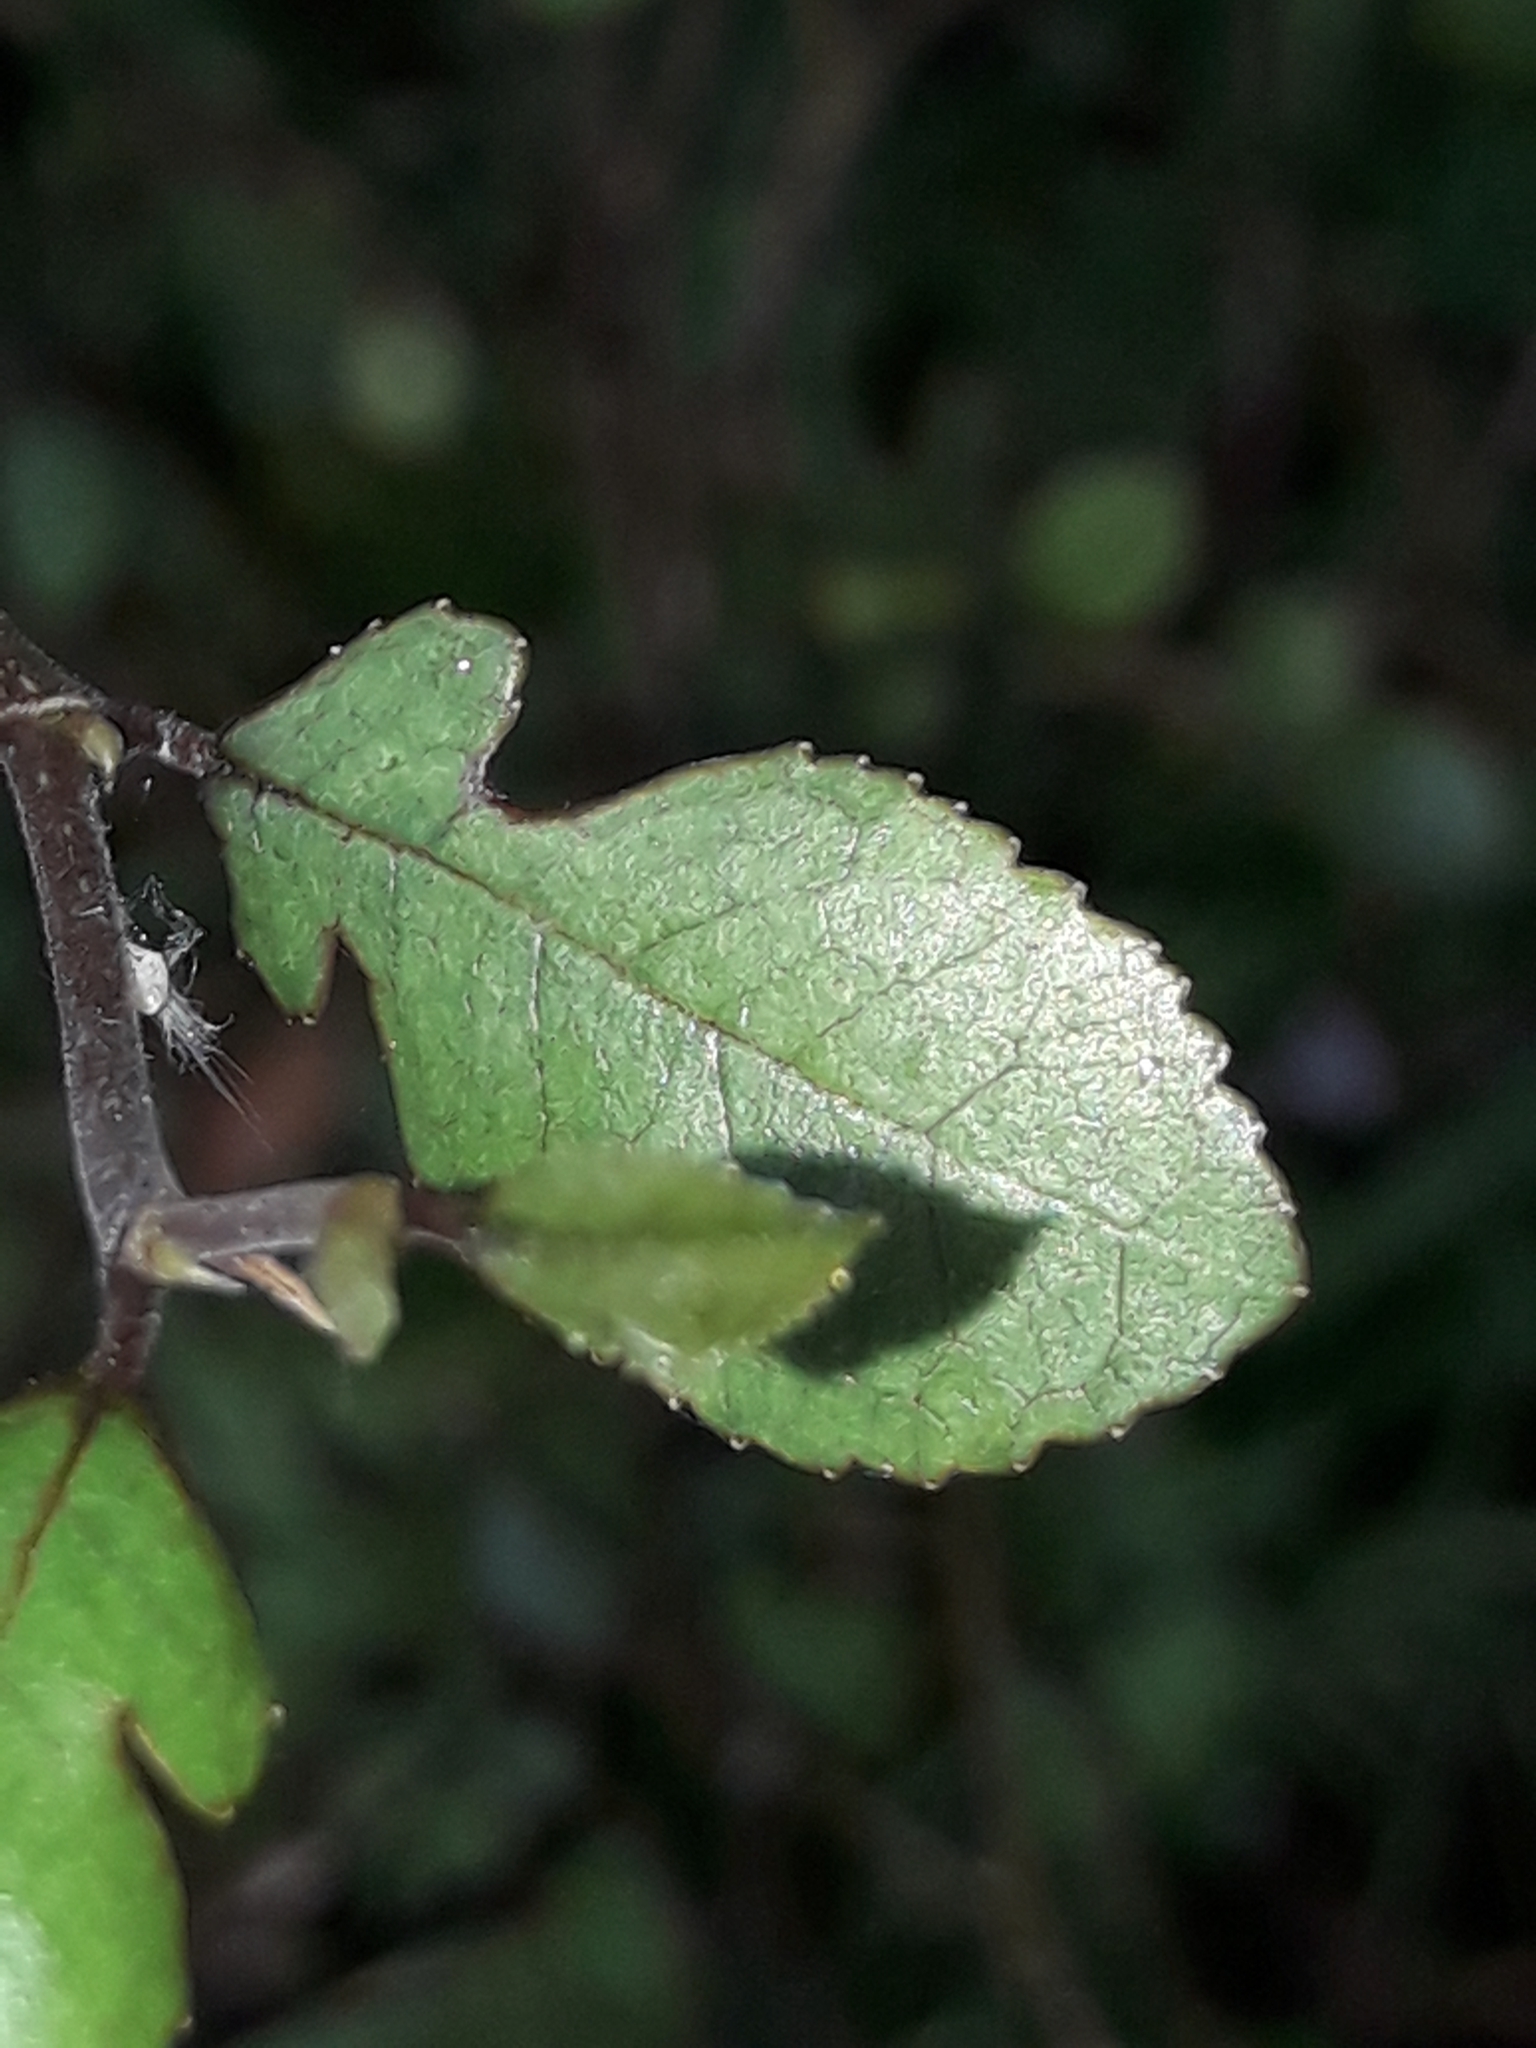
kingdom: Plantae
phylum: Tracheophyta
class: Magnoliopsida
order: Rosales
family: Moraceae
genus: Paratrophis
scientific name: Paratrophis microphylla
